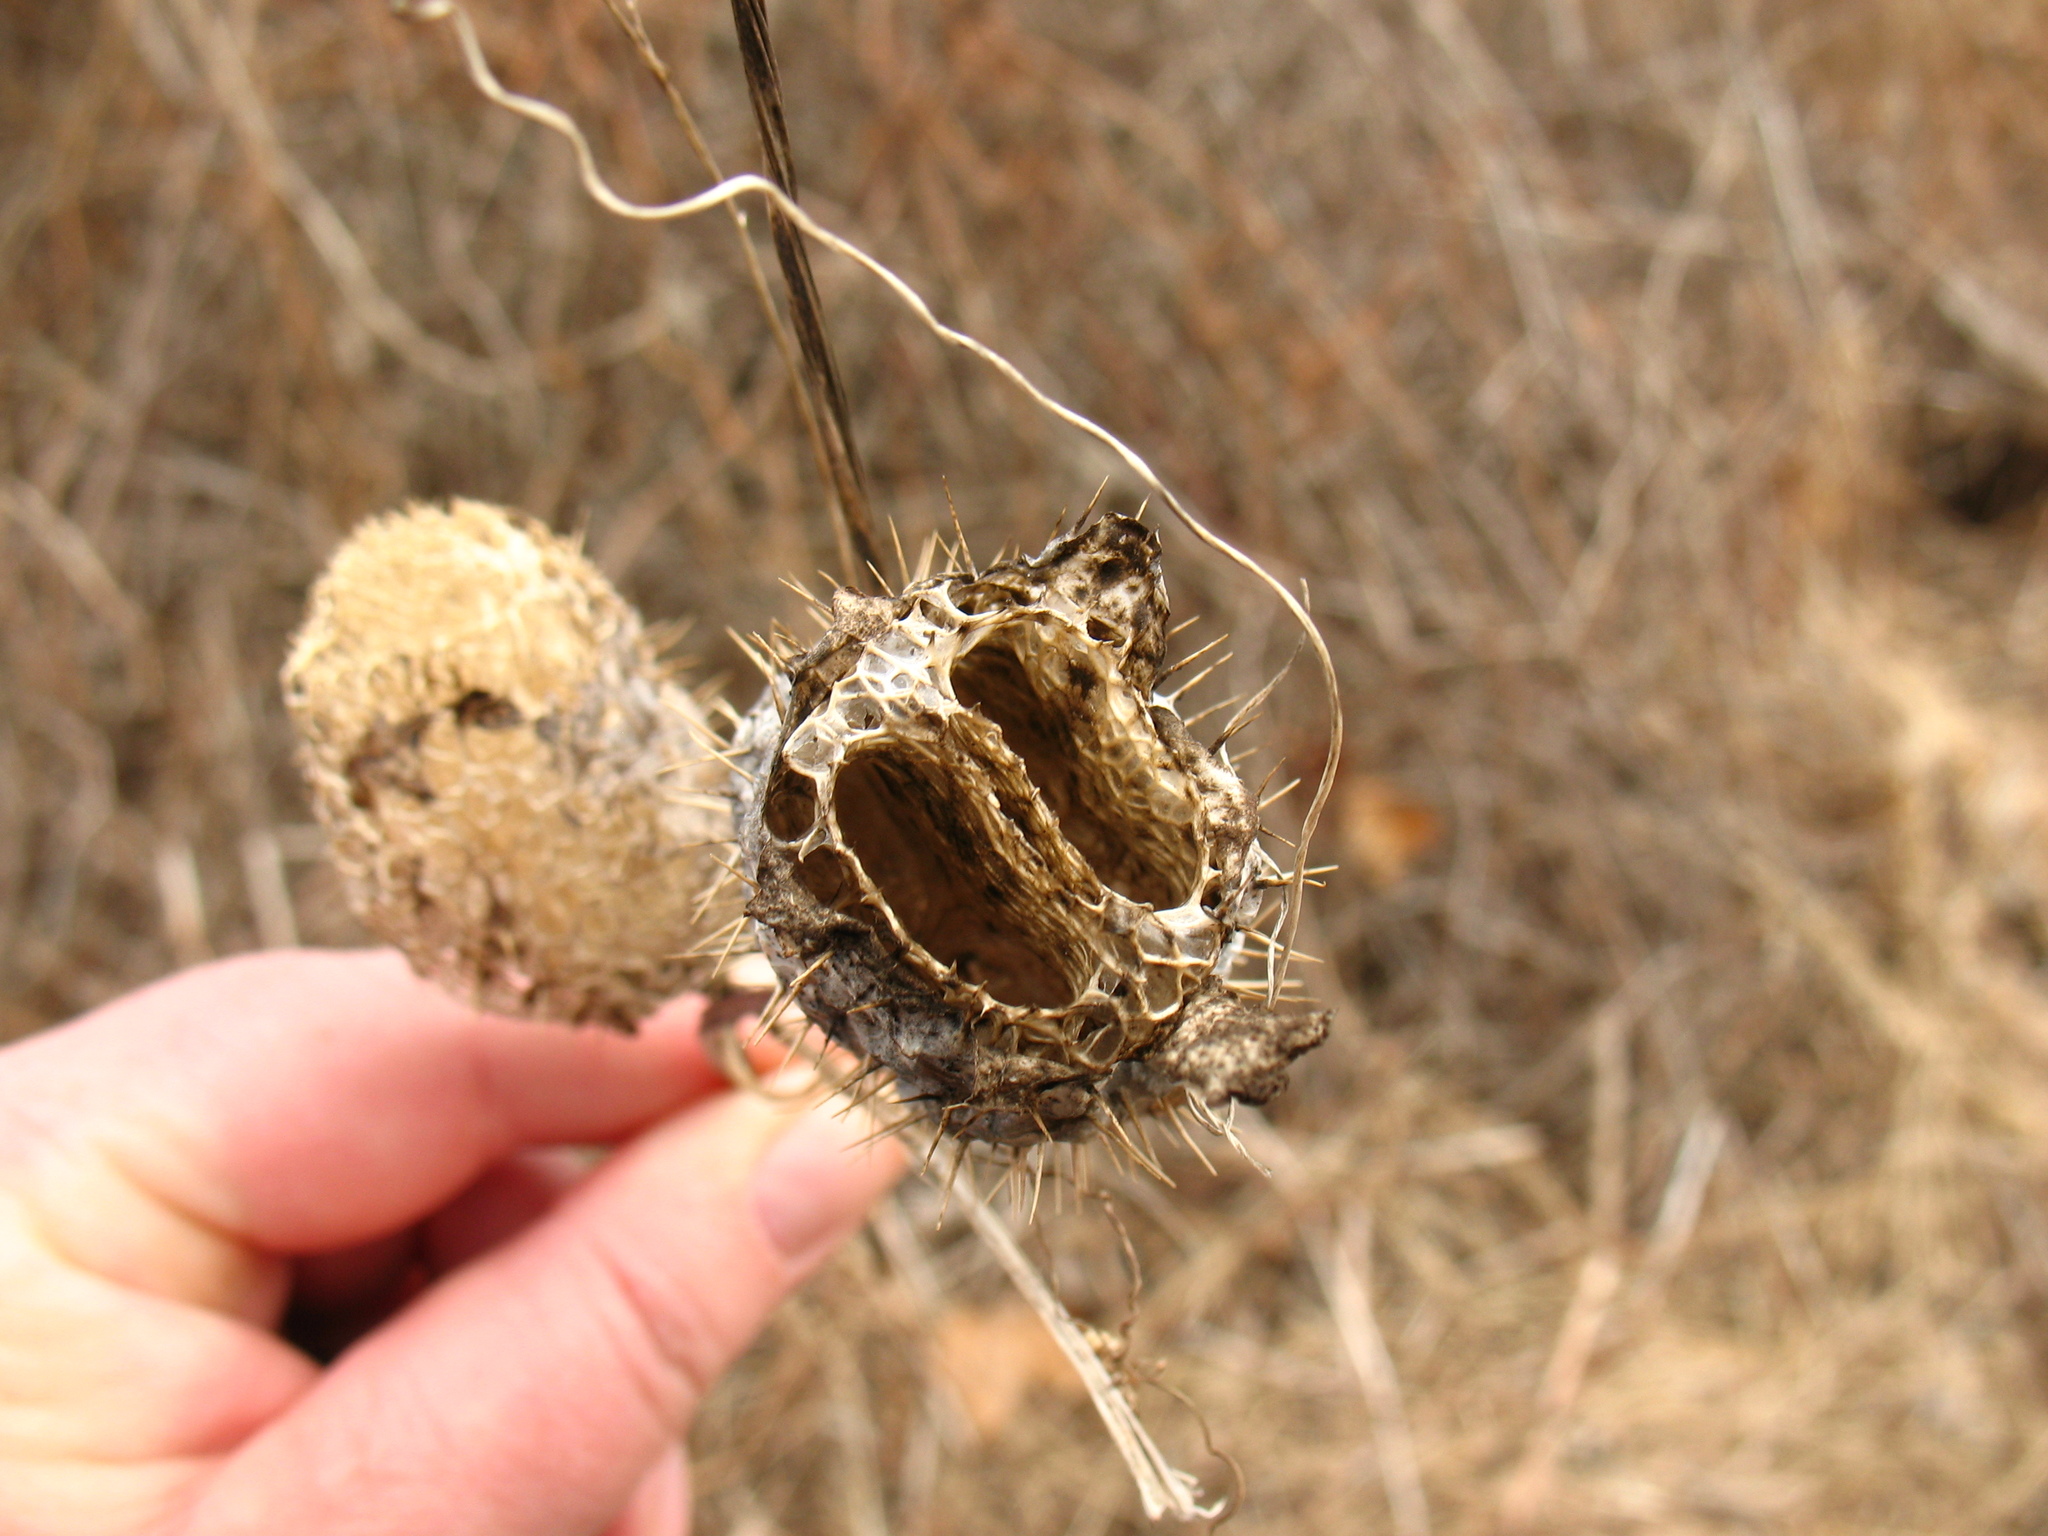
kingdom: Plantae
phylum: Tracheophyta
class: Magnoliopsida
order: Cucurbitales
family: Cucurbitaceae
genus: Echinocystis
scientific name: Echinocystis lobata
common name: Wild cucumber
